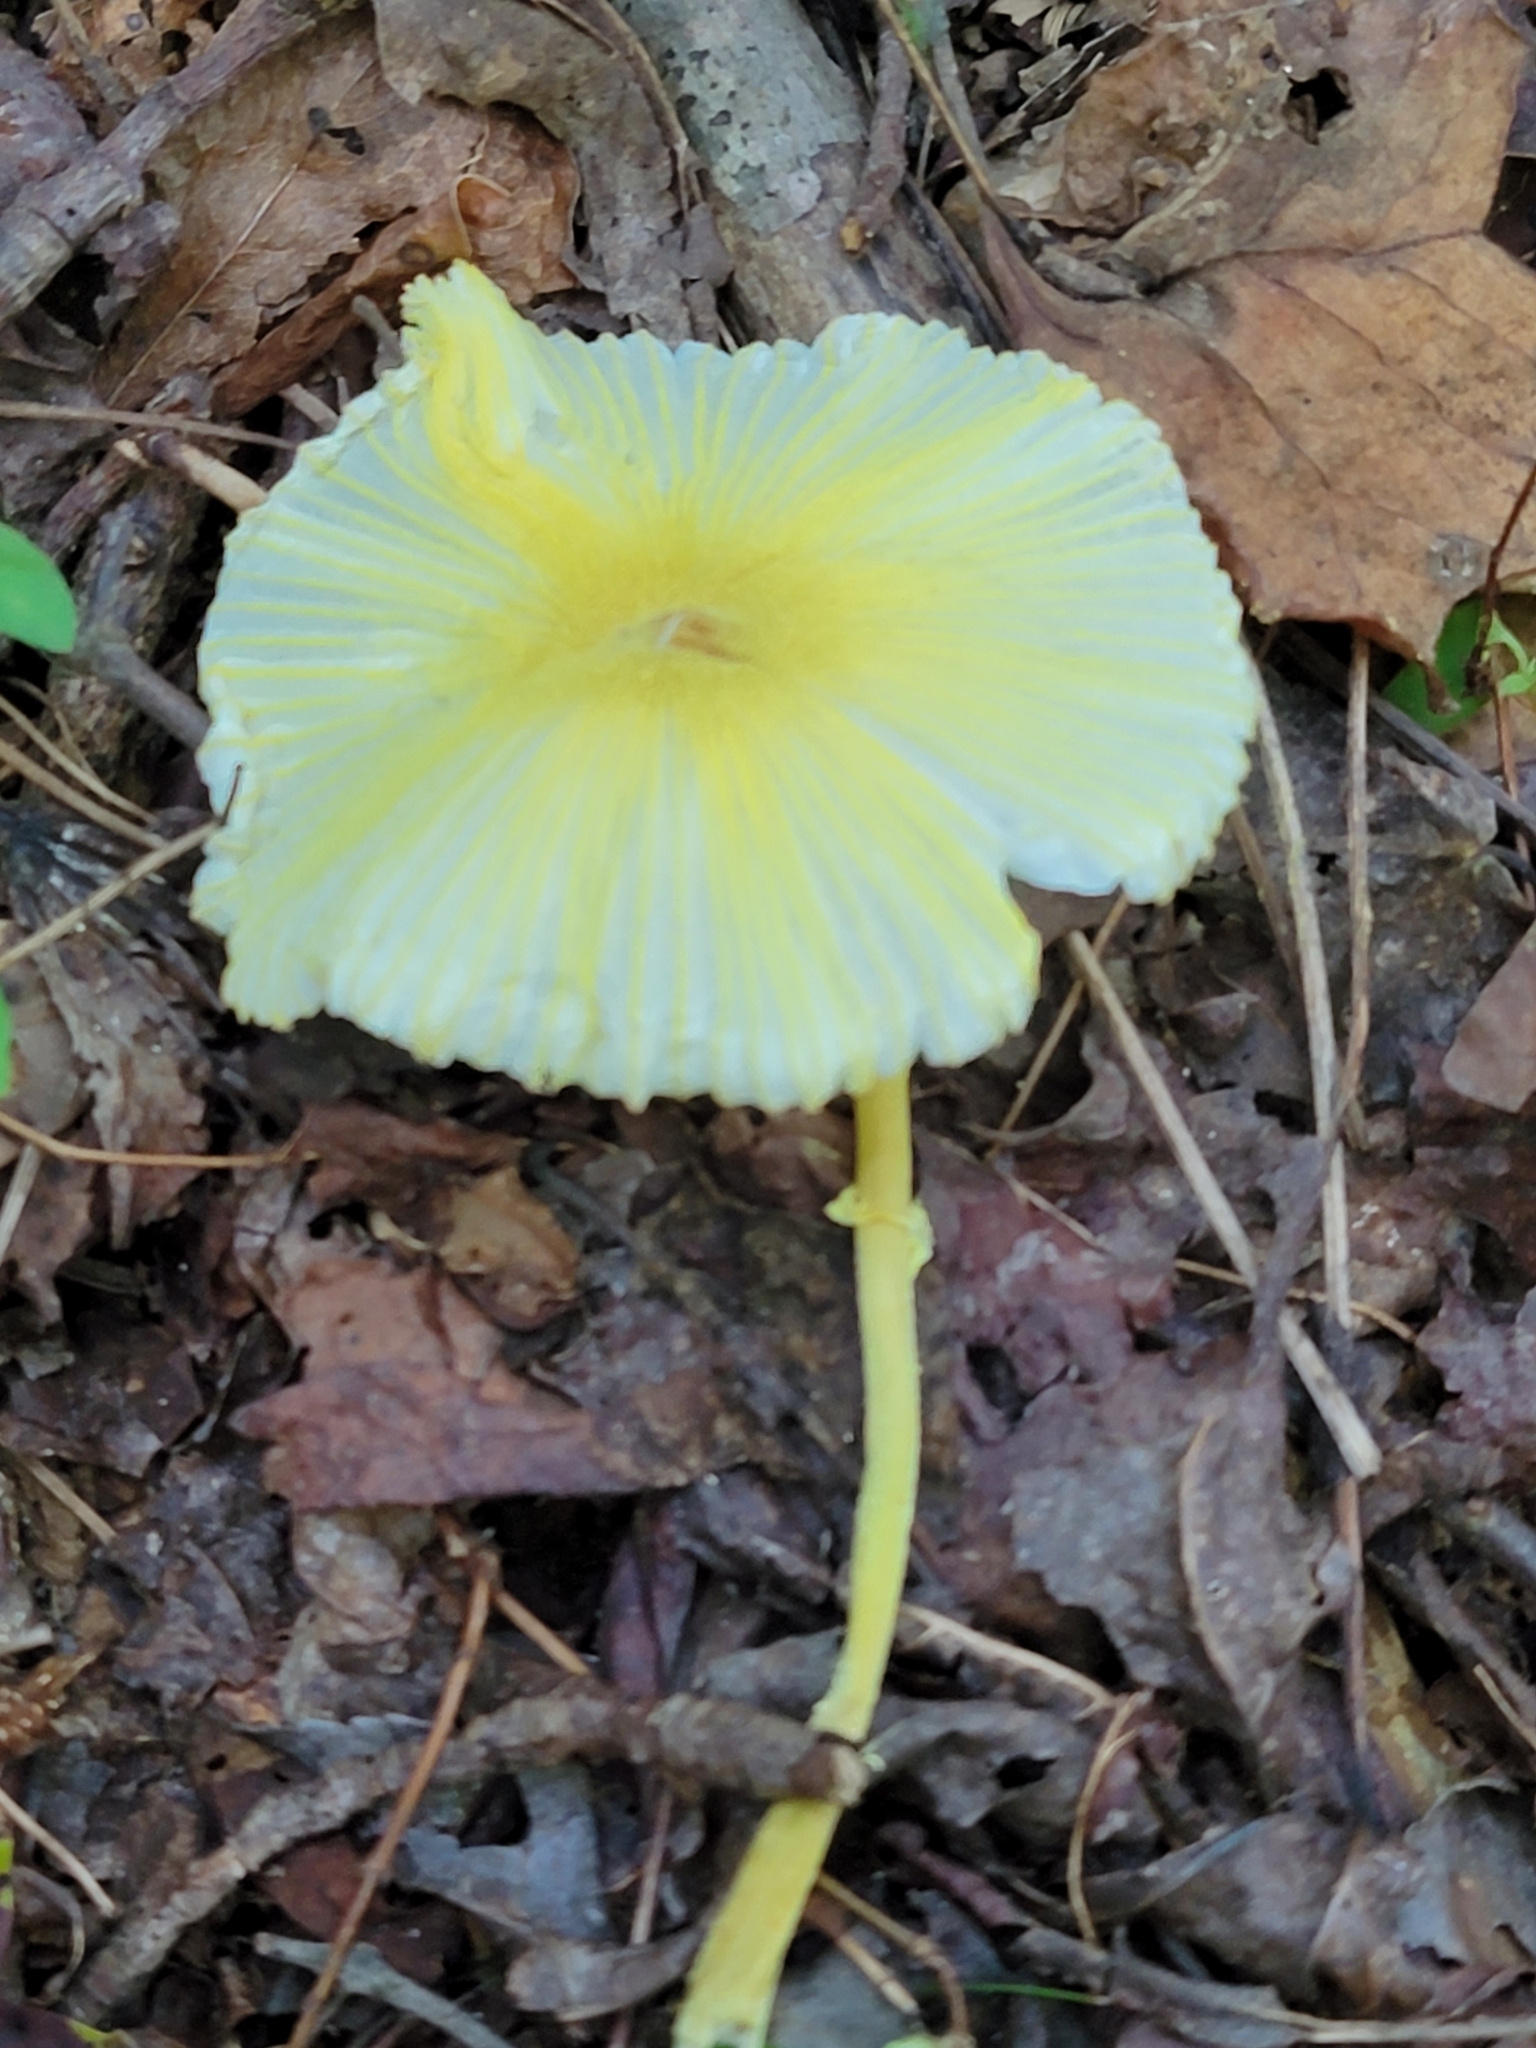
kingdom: Fungi
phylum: Basidiomycota
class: Agaricomycetes
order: Agaricales
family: Agaricaceae
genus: Leucocoprinus
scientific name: Leucocoprinus fragilissimus
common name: Fragile dapperling
